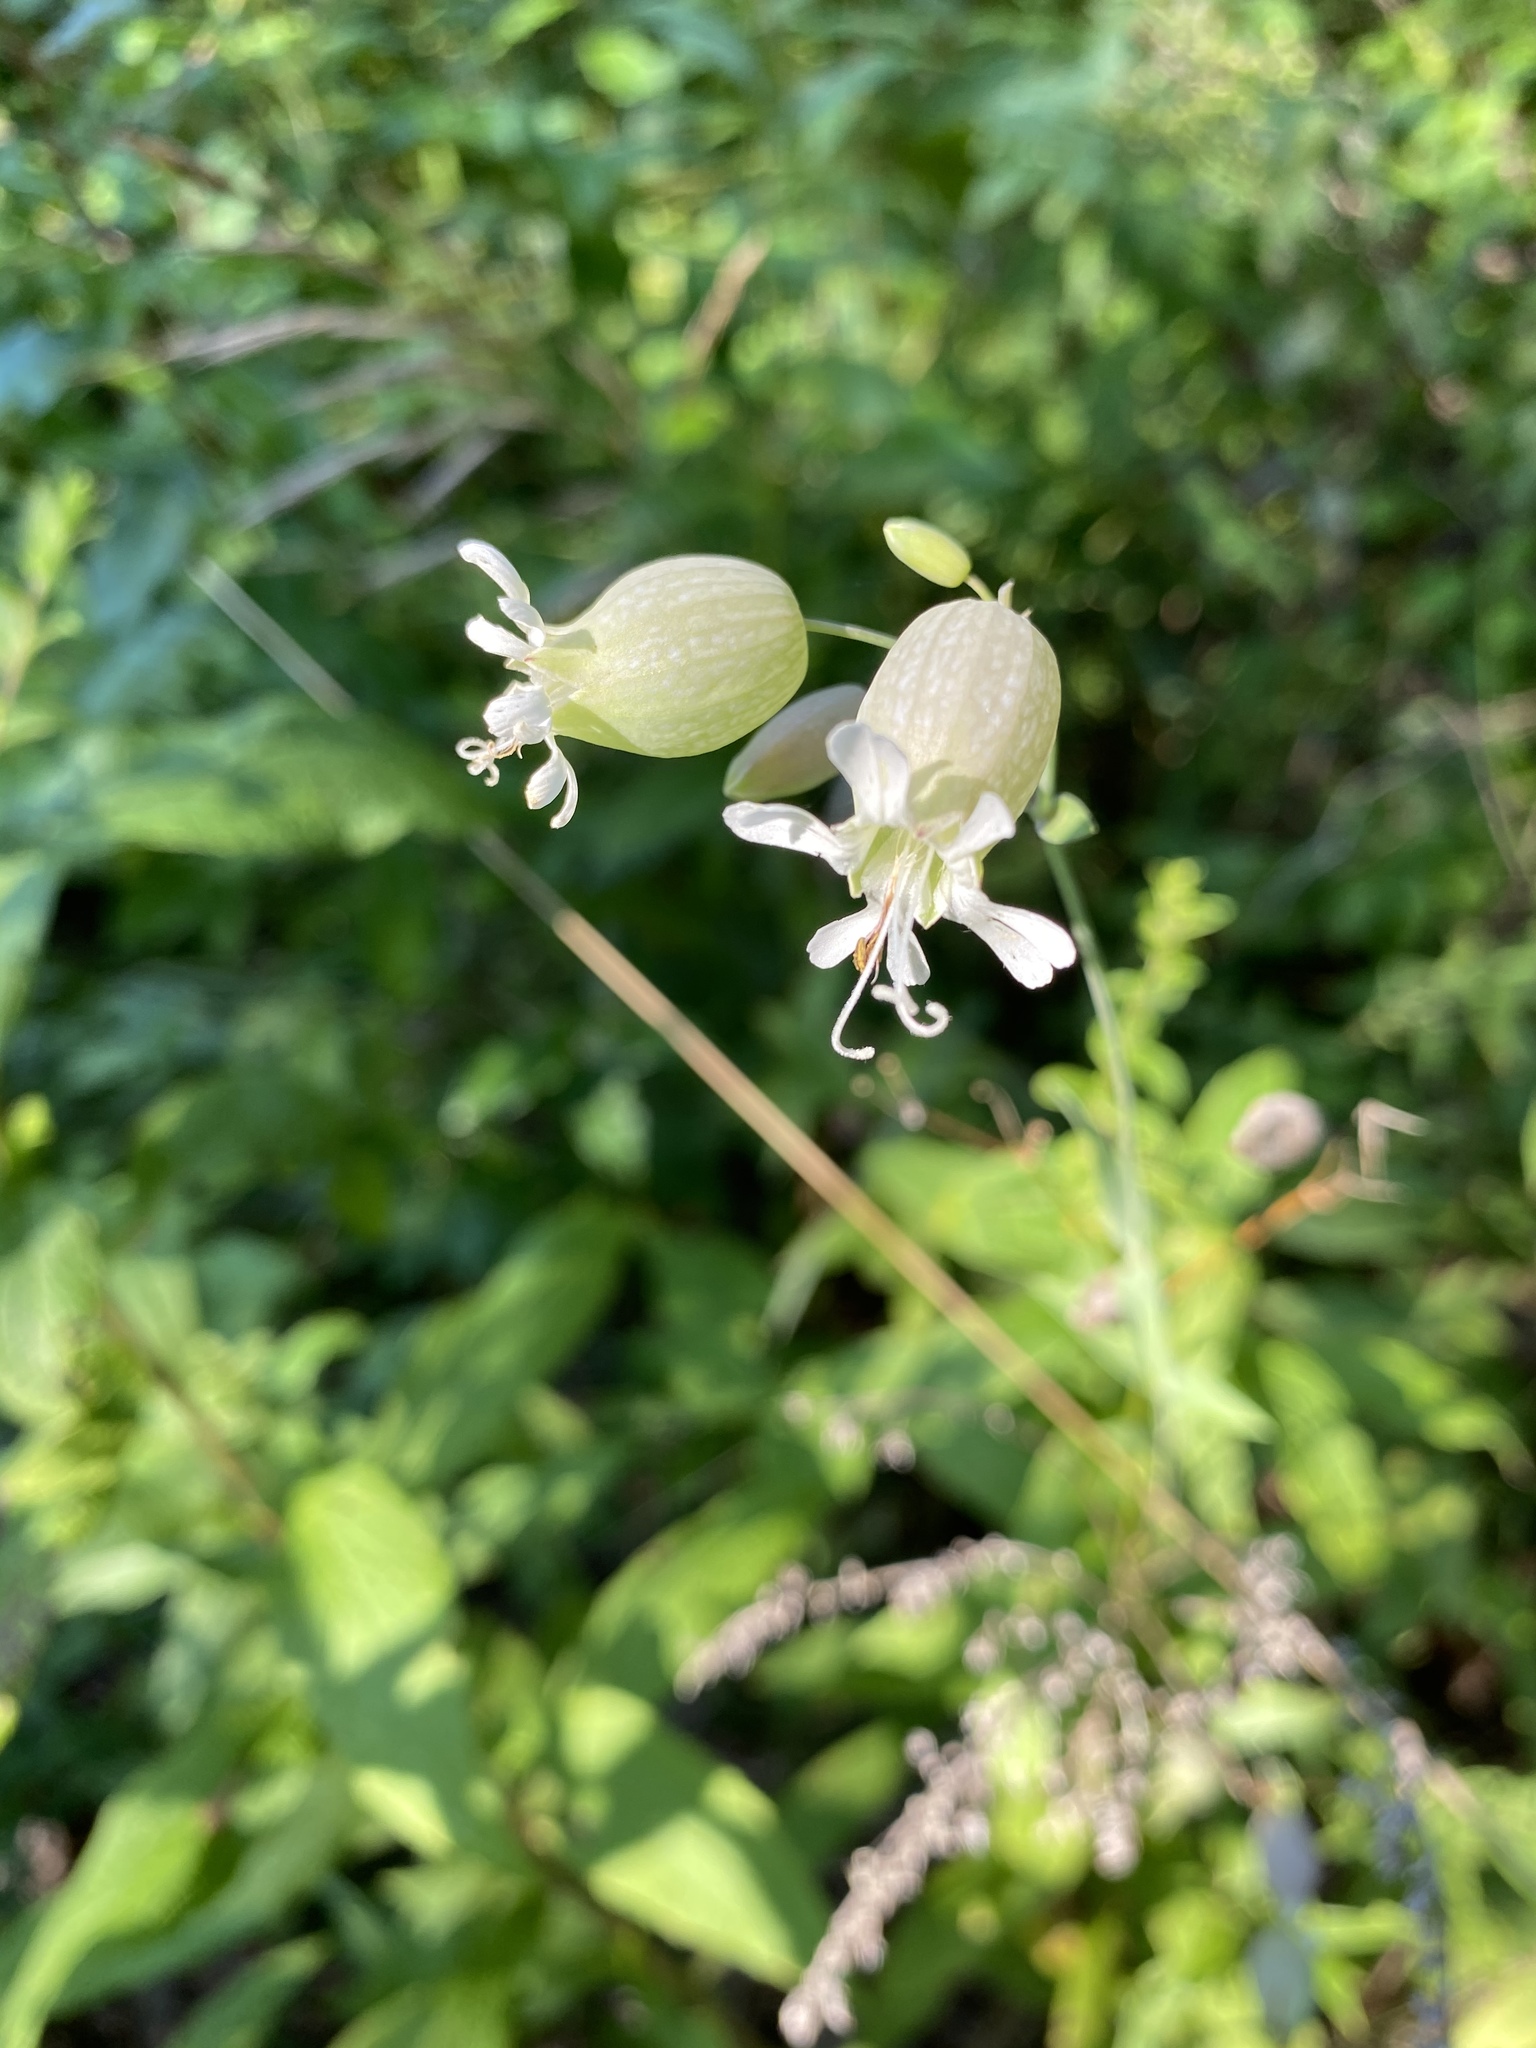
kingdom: Plantae
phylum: Tracheophyta
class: Magnoliopsida
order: Caryophyllales
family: Caryophyllaceae
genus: Silene
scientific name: Silene vulgaris
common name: Bladder campion
